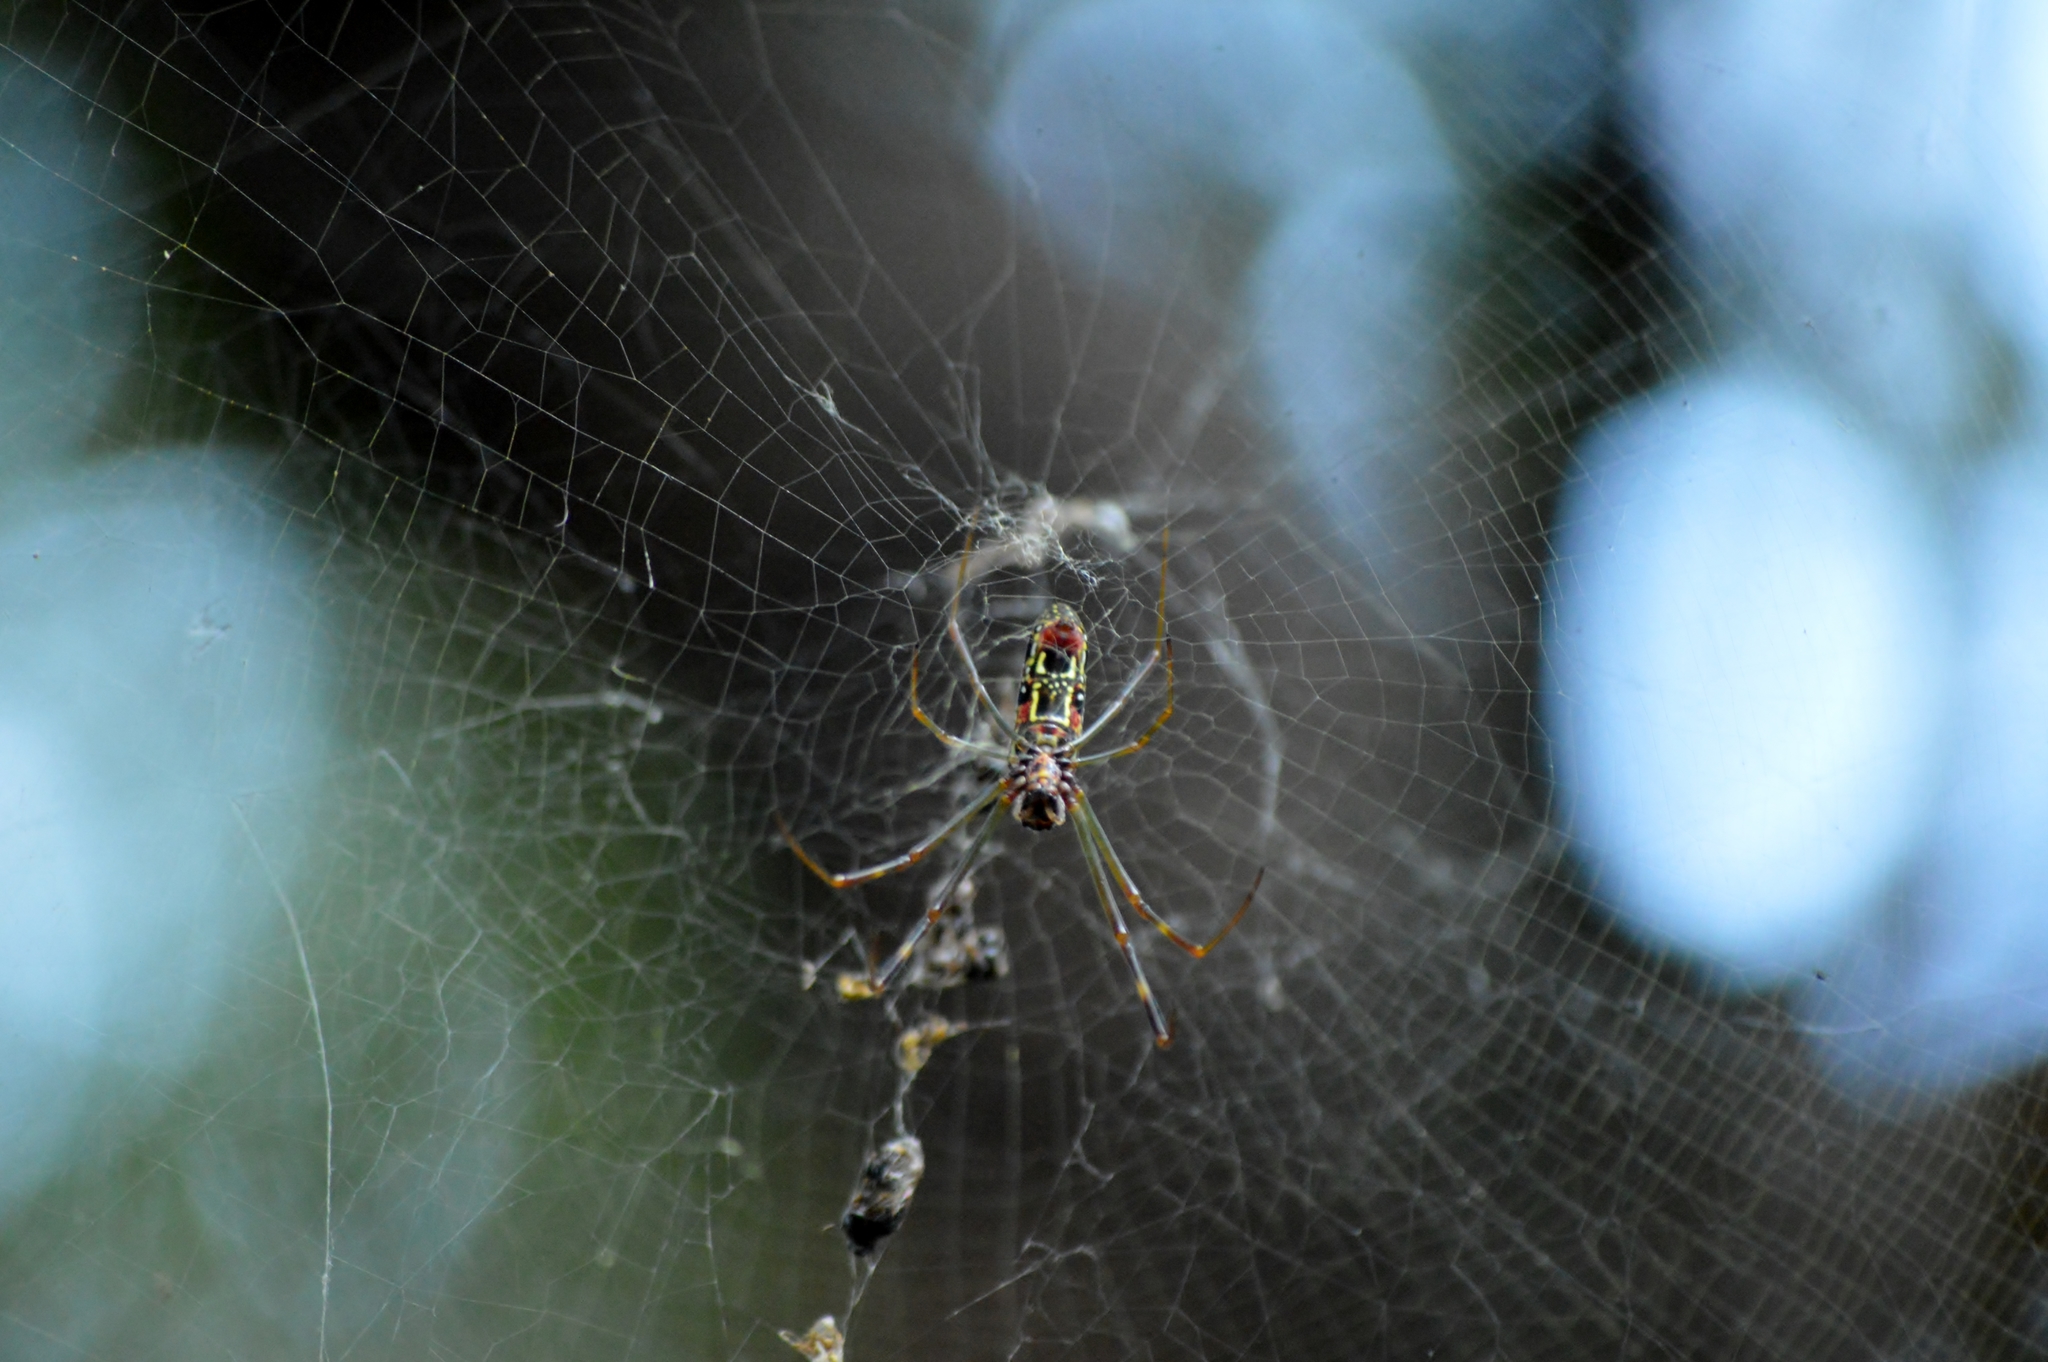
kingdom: Animalia
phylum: Arthropoda
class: Arachnida
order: Araneae
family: Araneidae
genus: Trichonephila
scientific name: Trichonephila clavipes
